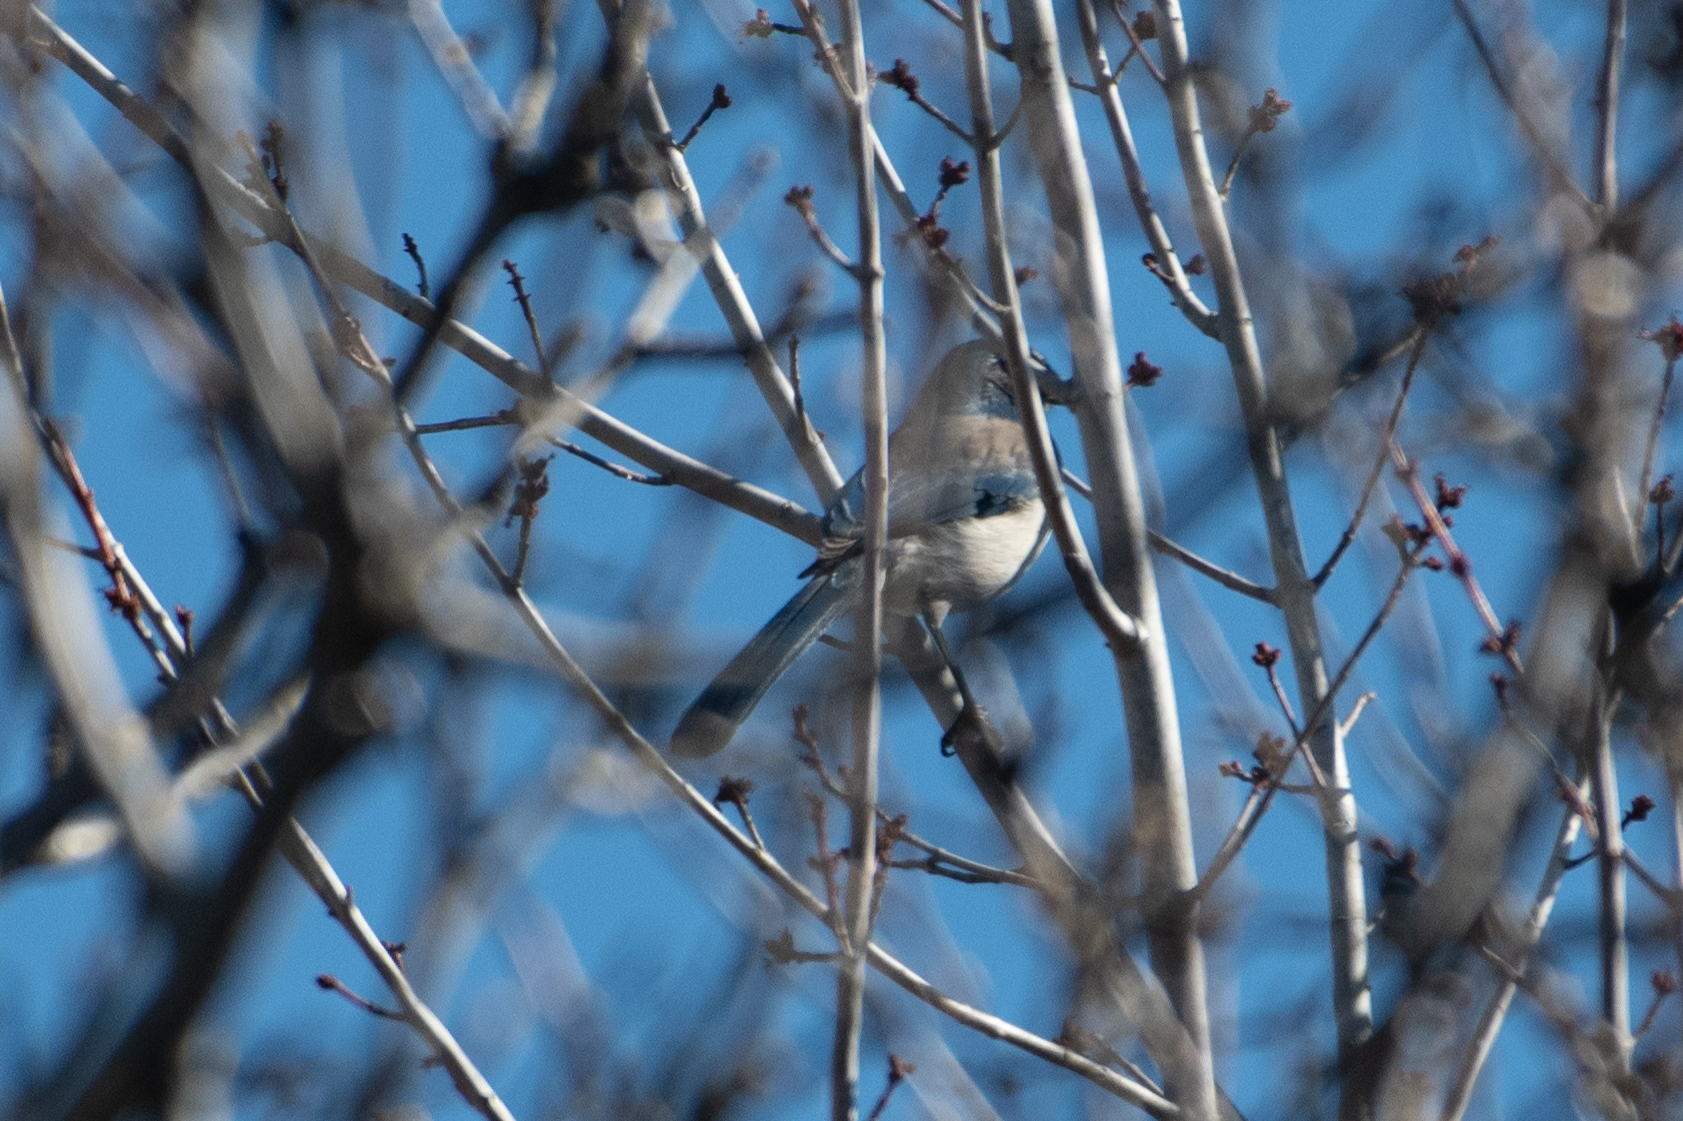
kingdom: Animalia
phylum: Chordata
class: Aves
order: Passeriformes
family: Corvidae
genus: Aphelocoma
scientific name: Aphelocoma californica
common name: California scrub-jay
